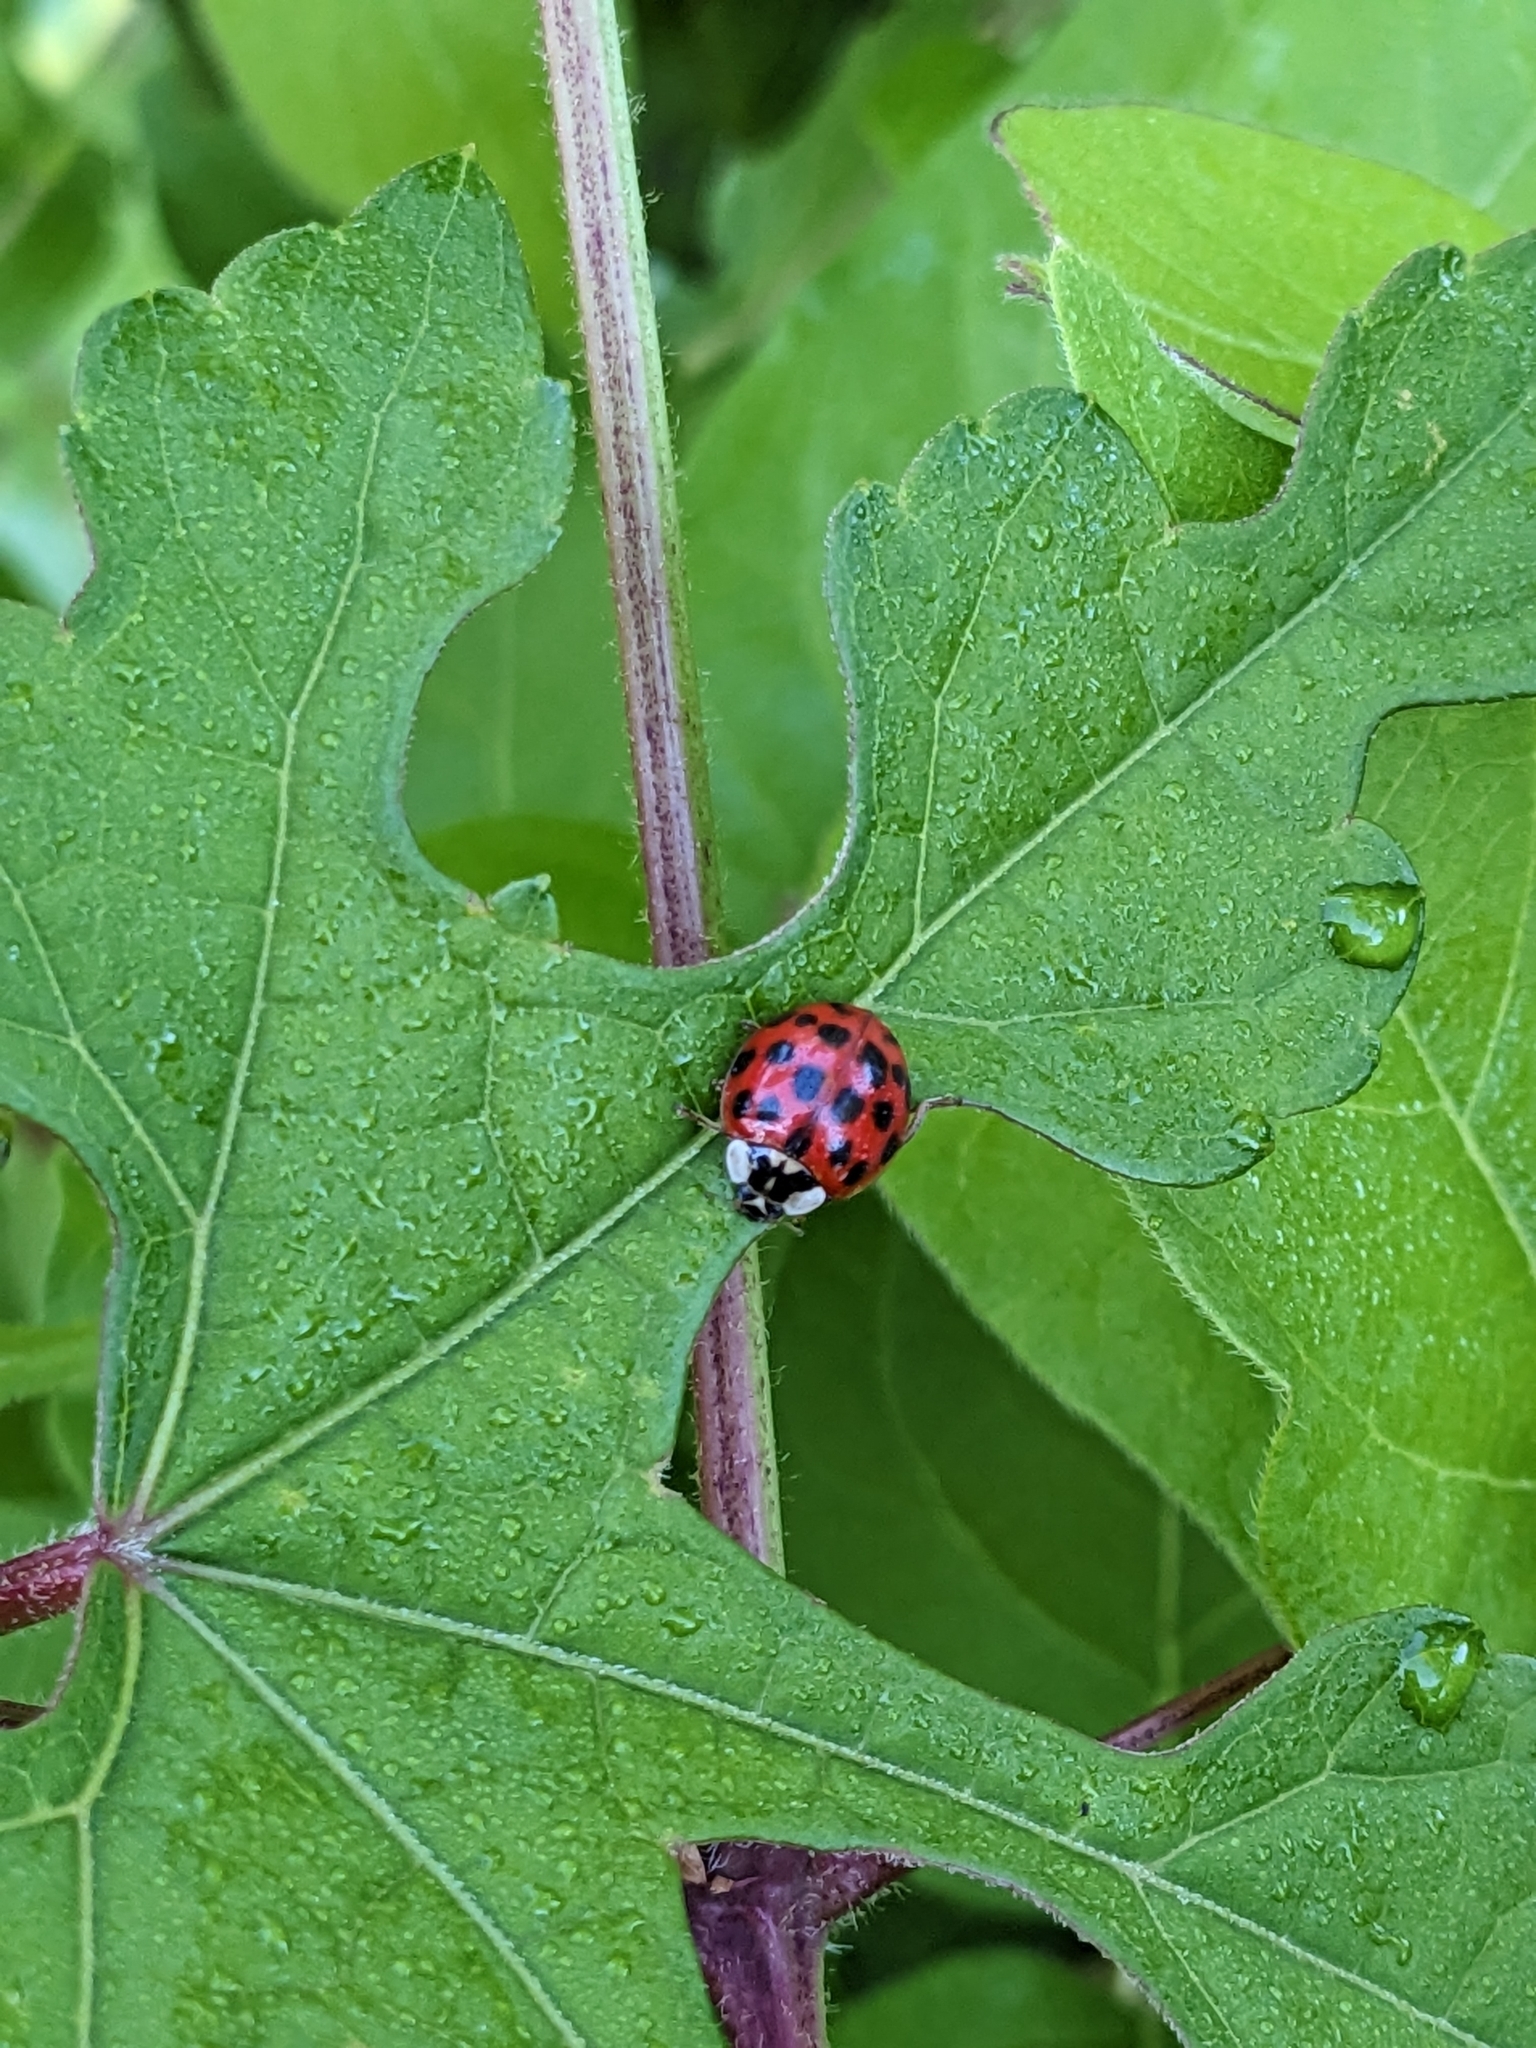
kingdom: Animalia
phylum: Arthropoda
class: Insecta
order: Coleoptera
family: Coccinellidae
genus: Harmonia
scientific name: Harmonia axyridis
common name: Harlequin ladybird
